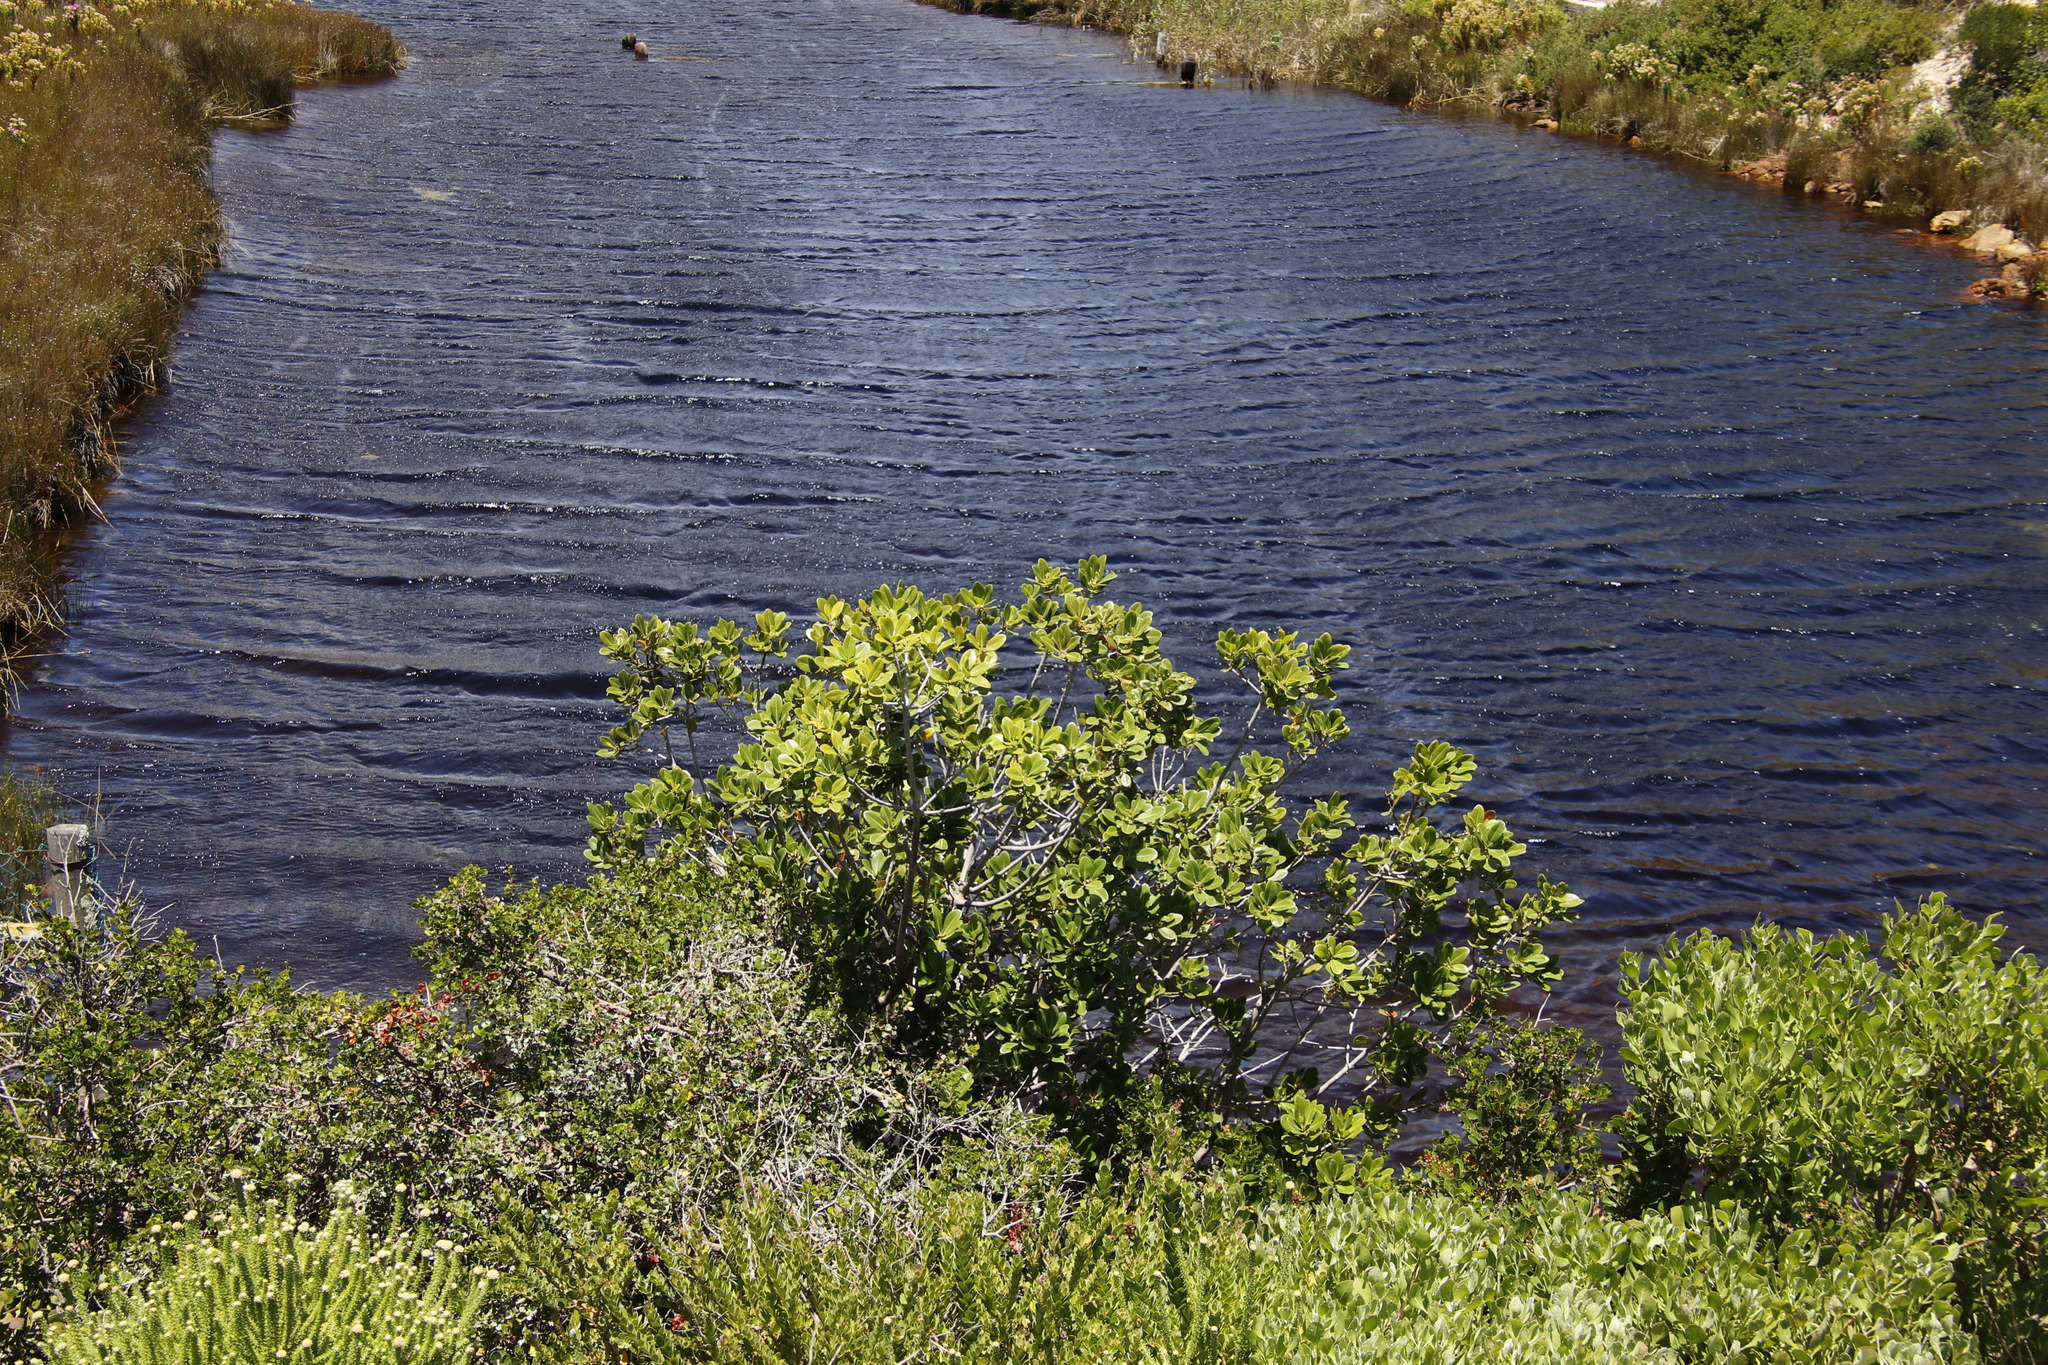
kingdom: Plantae
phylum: Tracheophyta
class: Magnoliopsida
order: Ericales
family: Sapotaceae
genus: Sideroxylon
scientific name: Sideroxylon inerme
